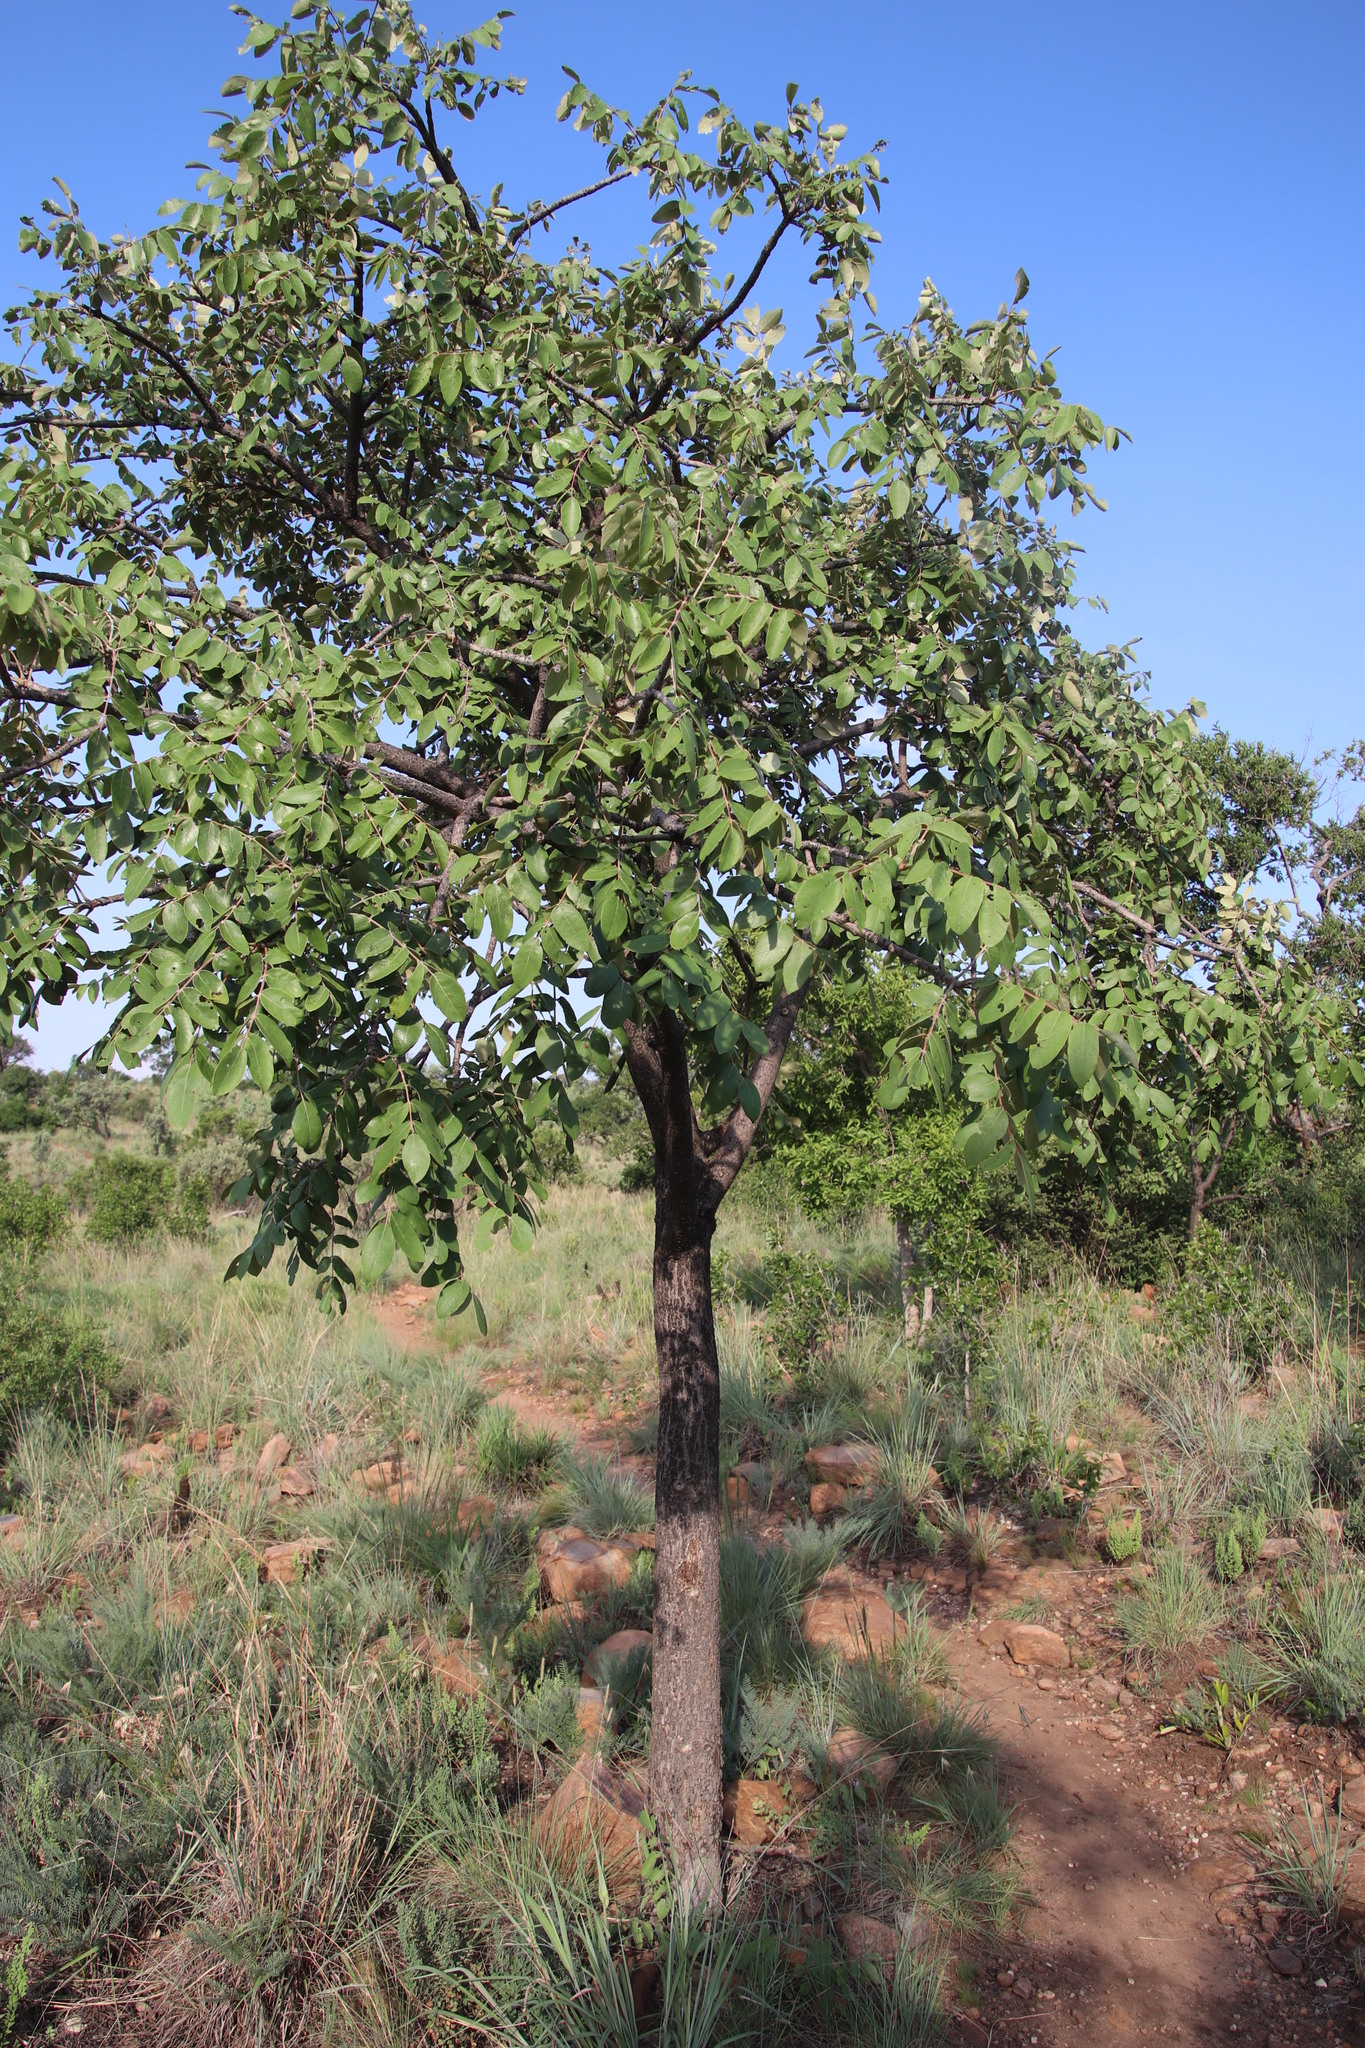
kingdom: Plantae
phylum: Tracheophyta
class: Magnoliopsida
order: Sapindales
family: Anacardiaceae
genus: Lannea
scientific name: Lannea discolor
